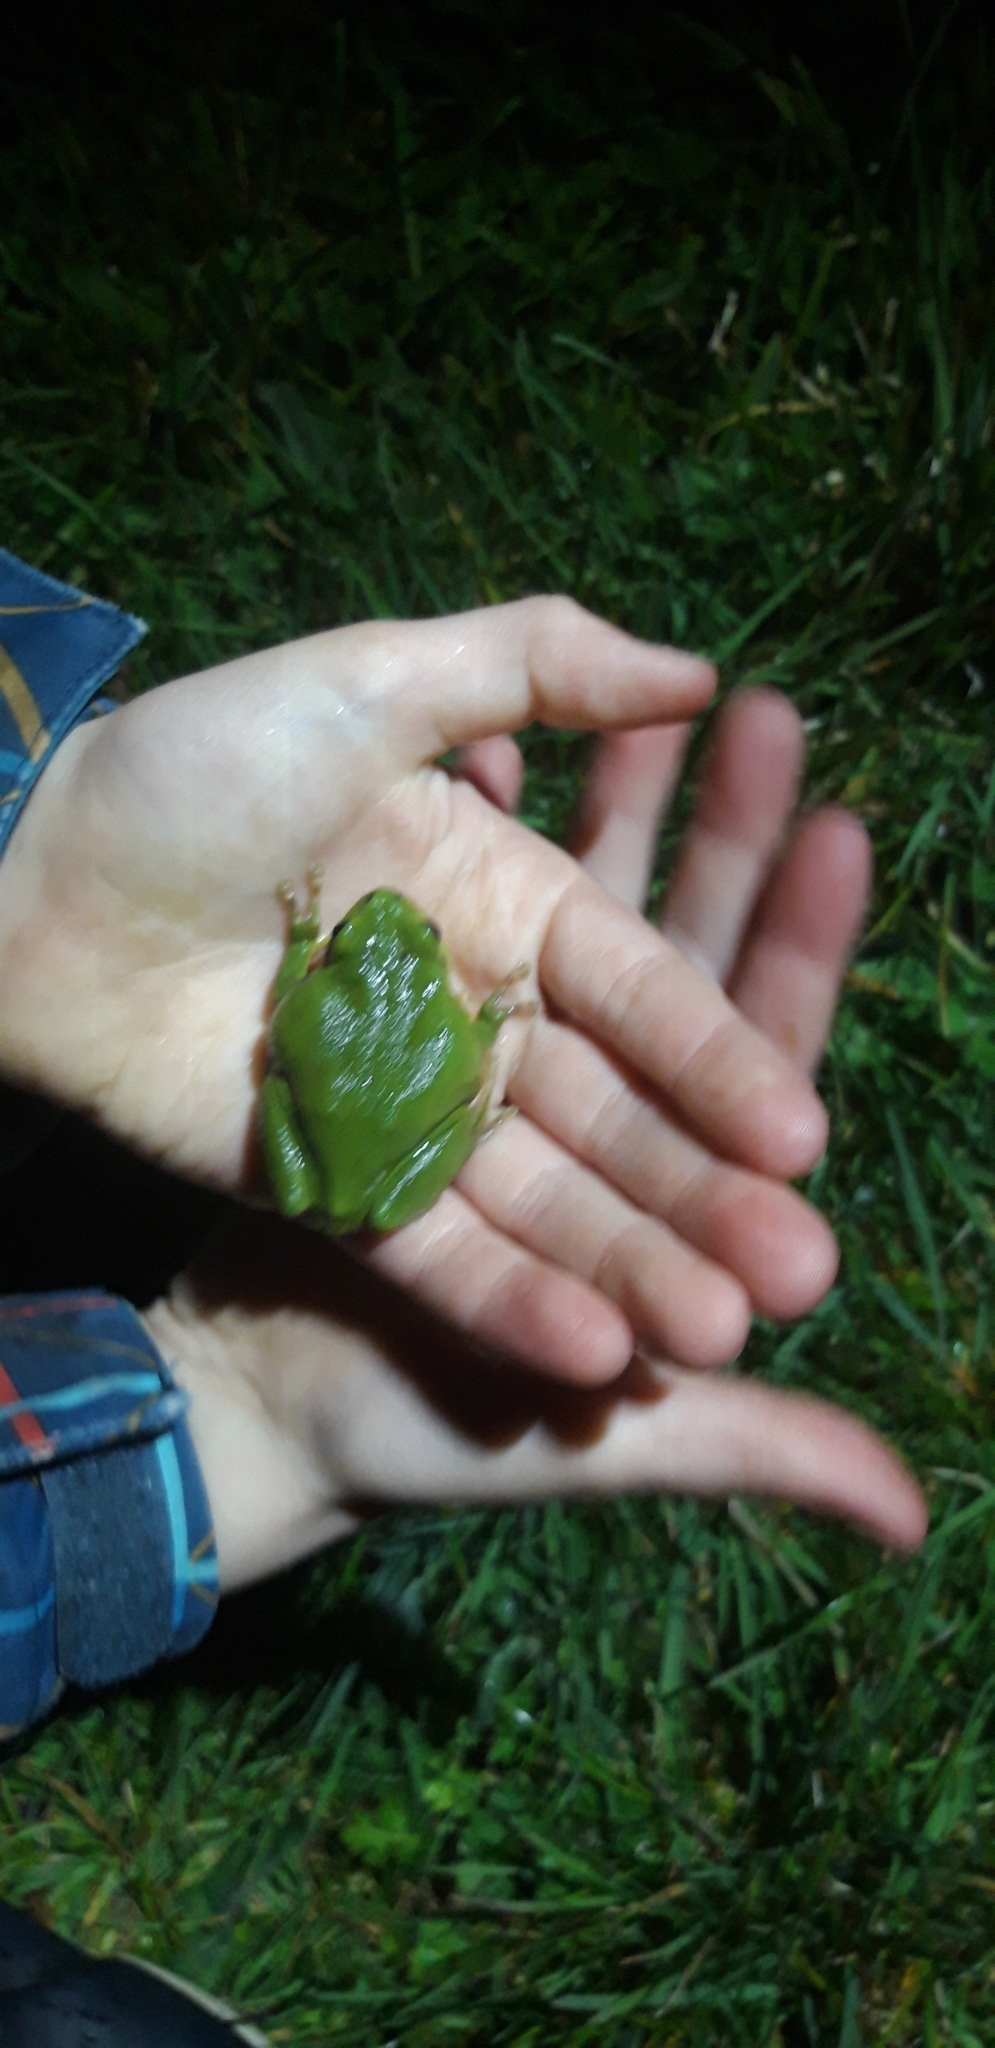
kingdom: Animalia
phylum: Chordata
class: Amphibia
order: Anura
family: Hylidae
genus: Hyla
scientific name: Hyla arborea
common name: Common tree frog
